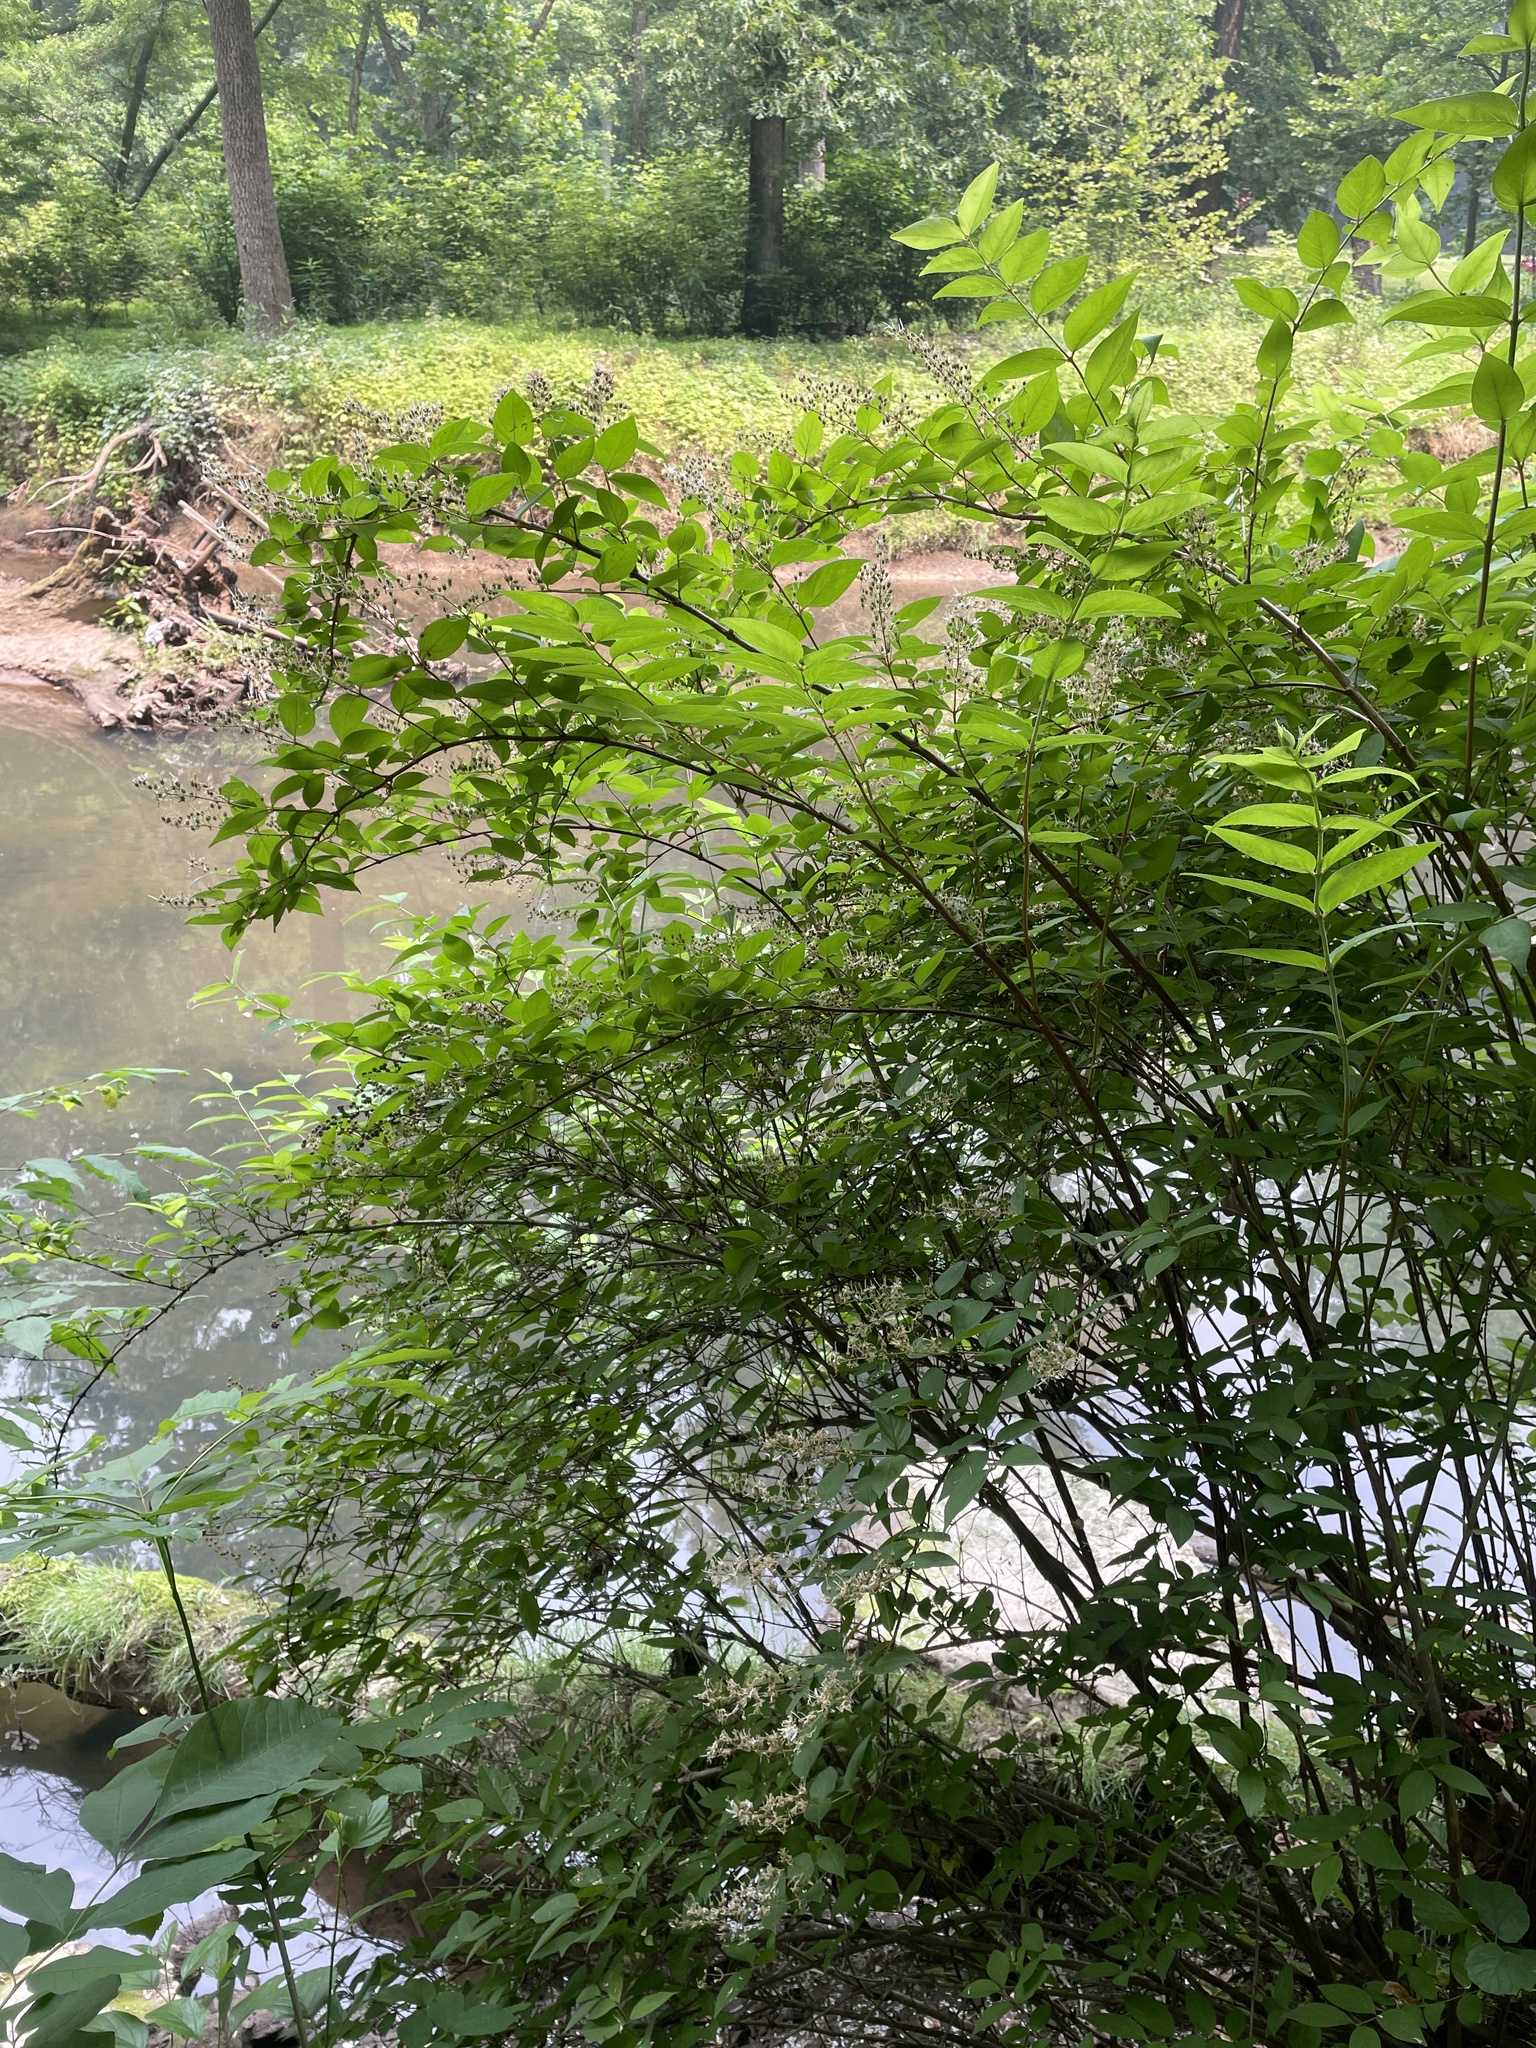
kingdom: Plantae
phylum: Tracheophyta
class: Magnoliopsida
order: Cornales
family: Hydrangeaceae
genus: Deutzia
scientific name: Deutzia crenata
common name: Deutzia
